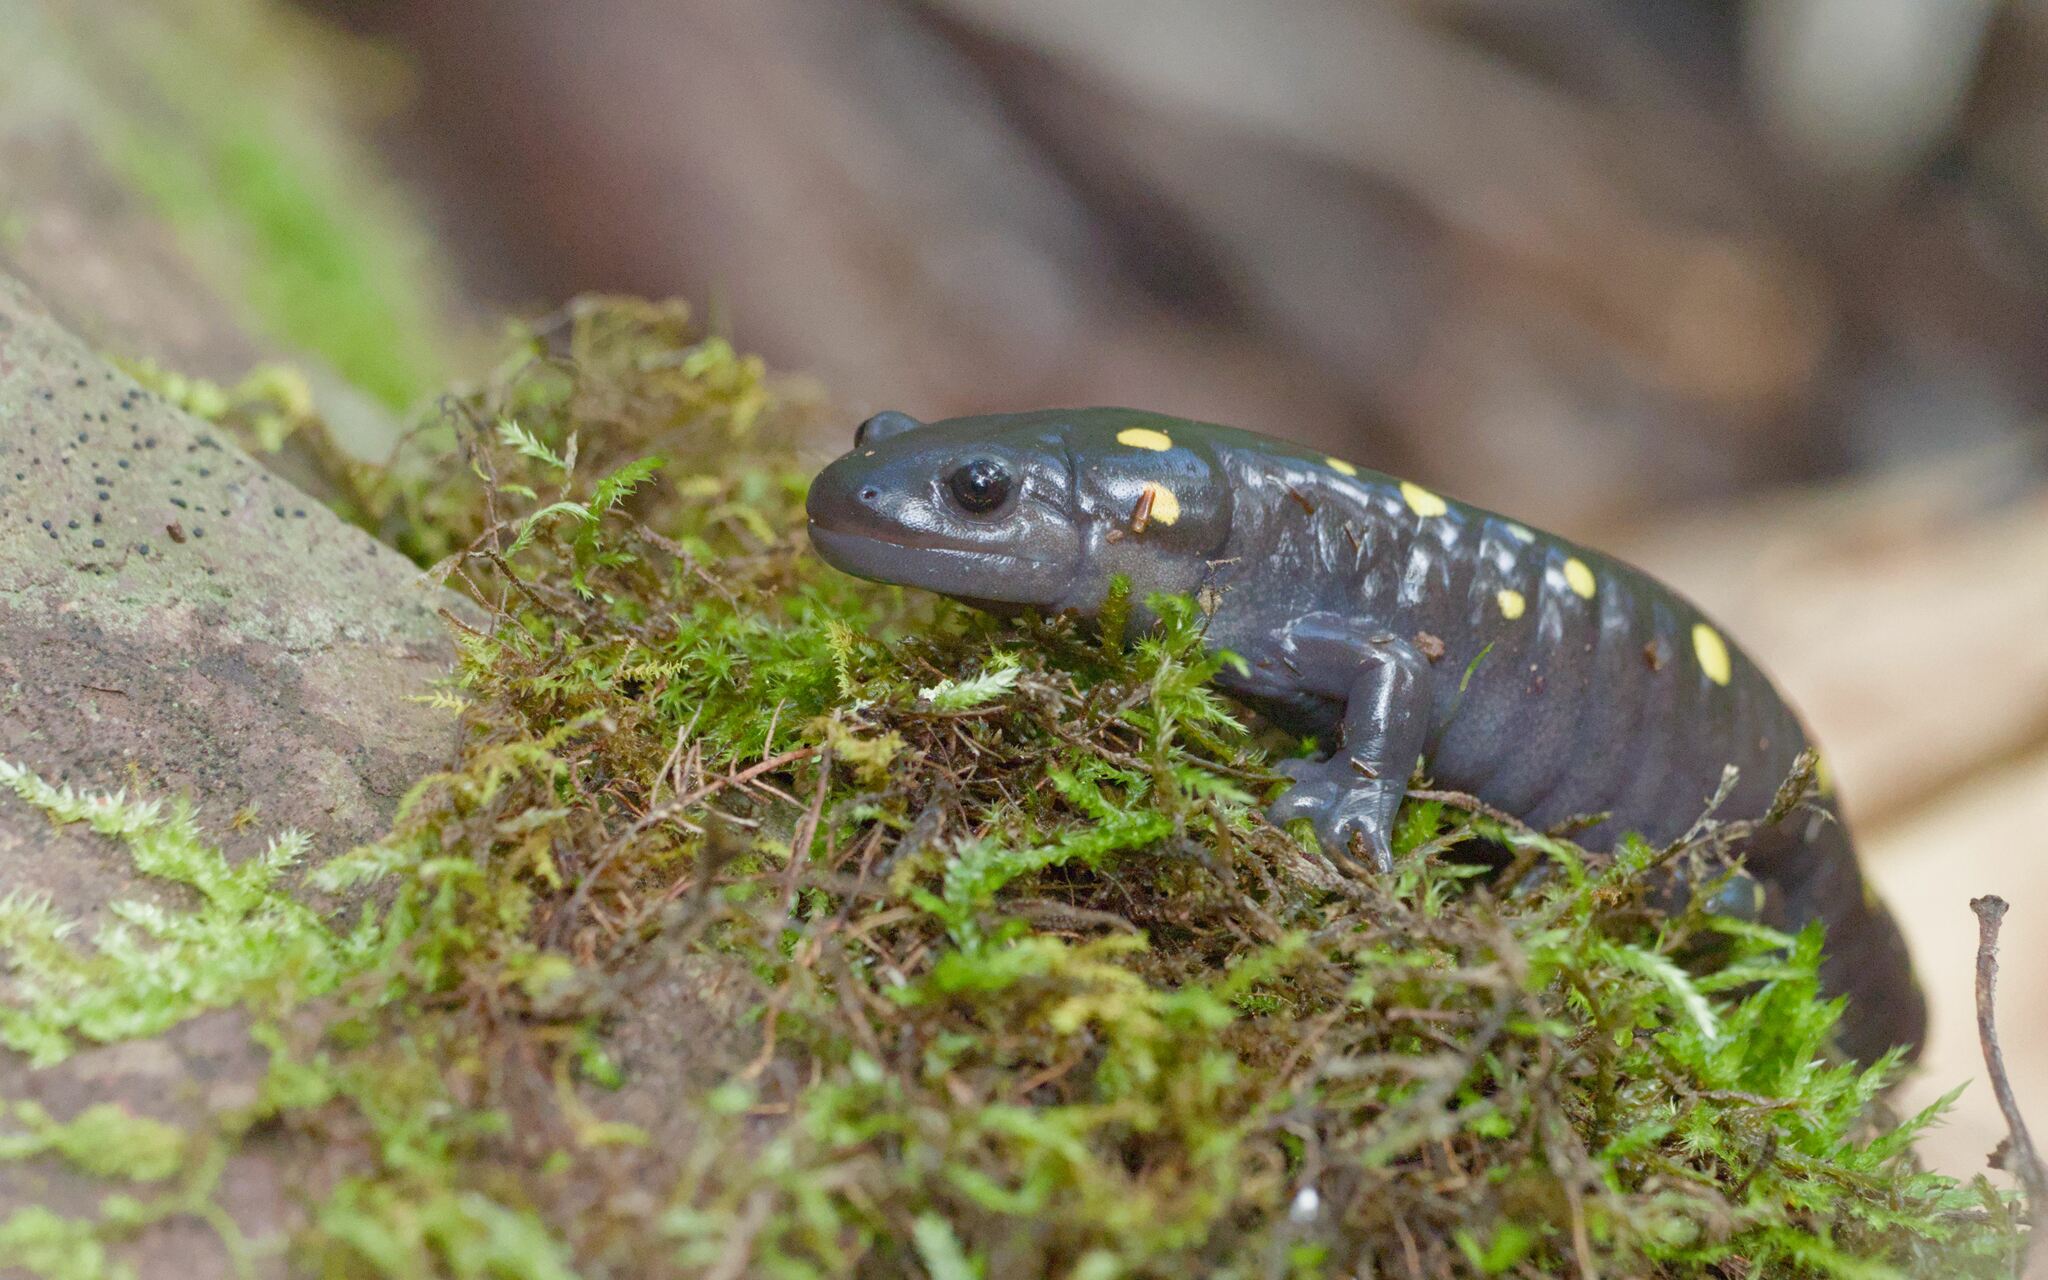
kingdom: Animalia
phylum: Chordata
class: Amphibia
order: Caudata
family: Ambystomatidae
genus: Ambystoma
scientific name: Ambystoma maculatum
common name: Spotted salamander
